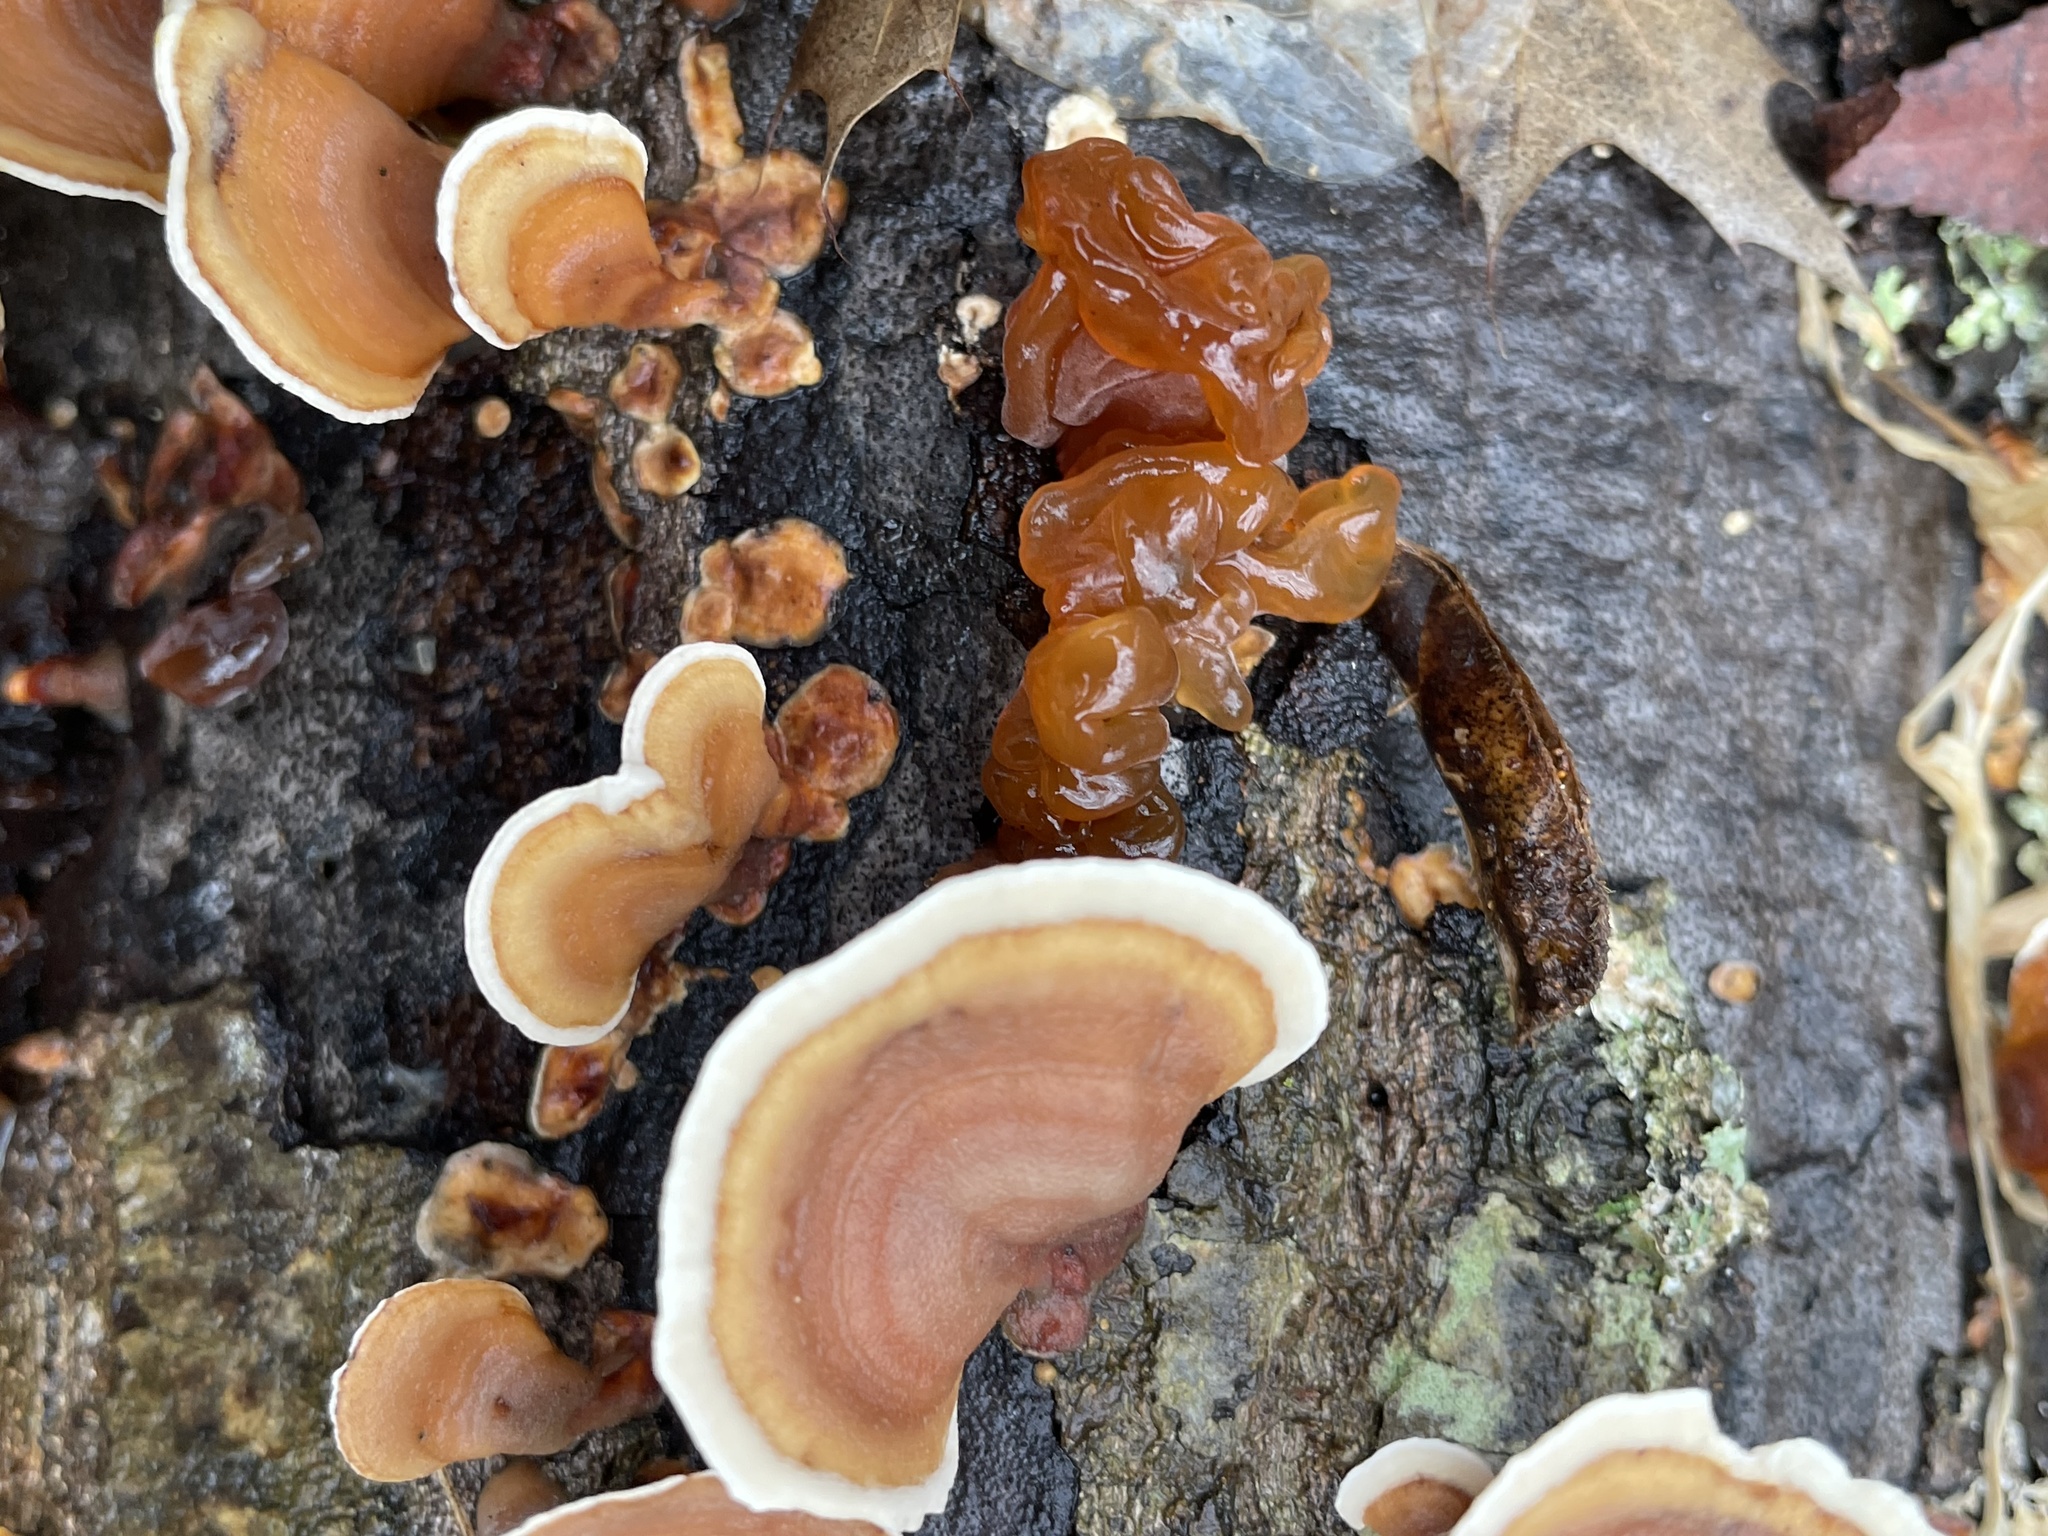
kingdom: Fungi
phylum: Basidiomycota
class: Tremellomycetes
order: Tremellales
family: Tremellaceae
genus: Phaeotremella
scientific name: Phaeotremella foliacea
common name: Leafy brain
